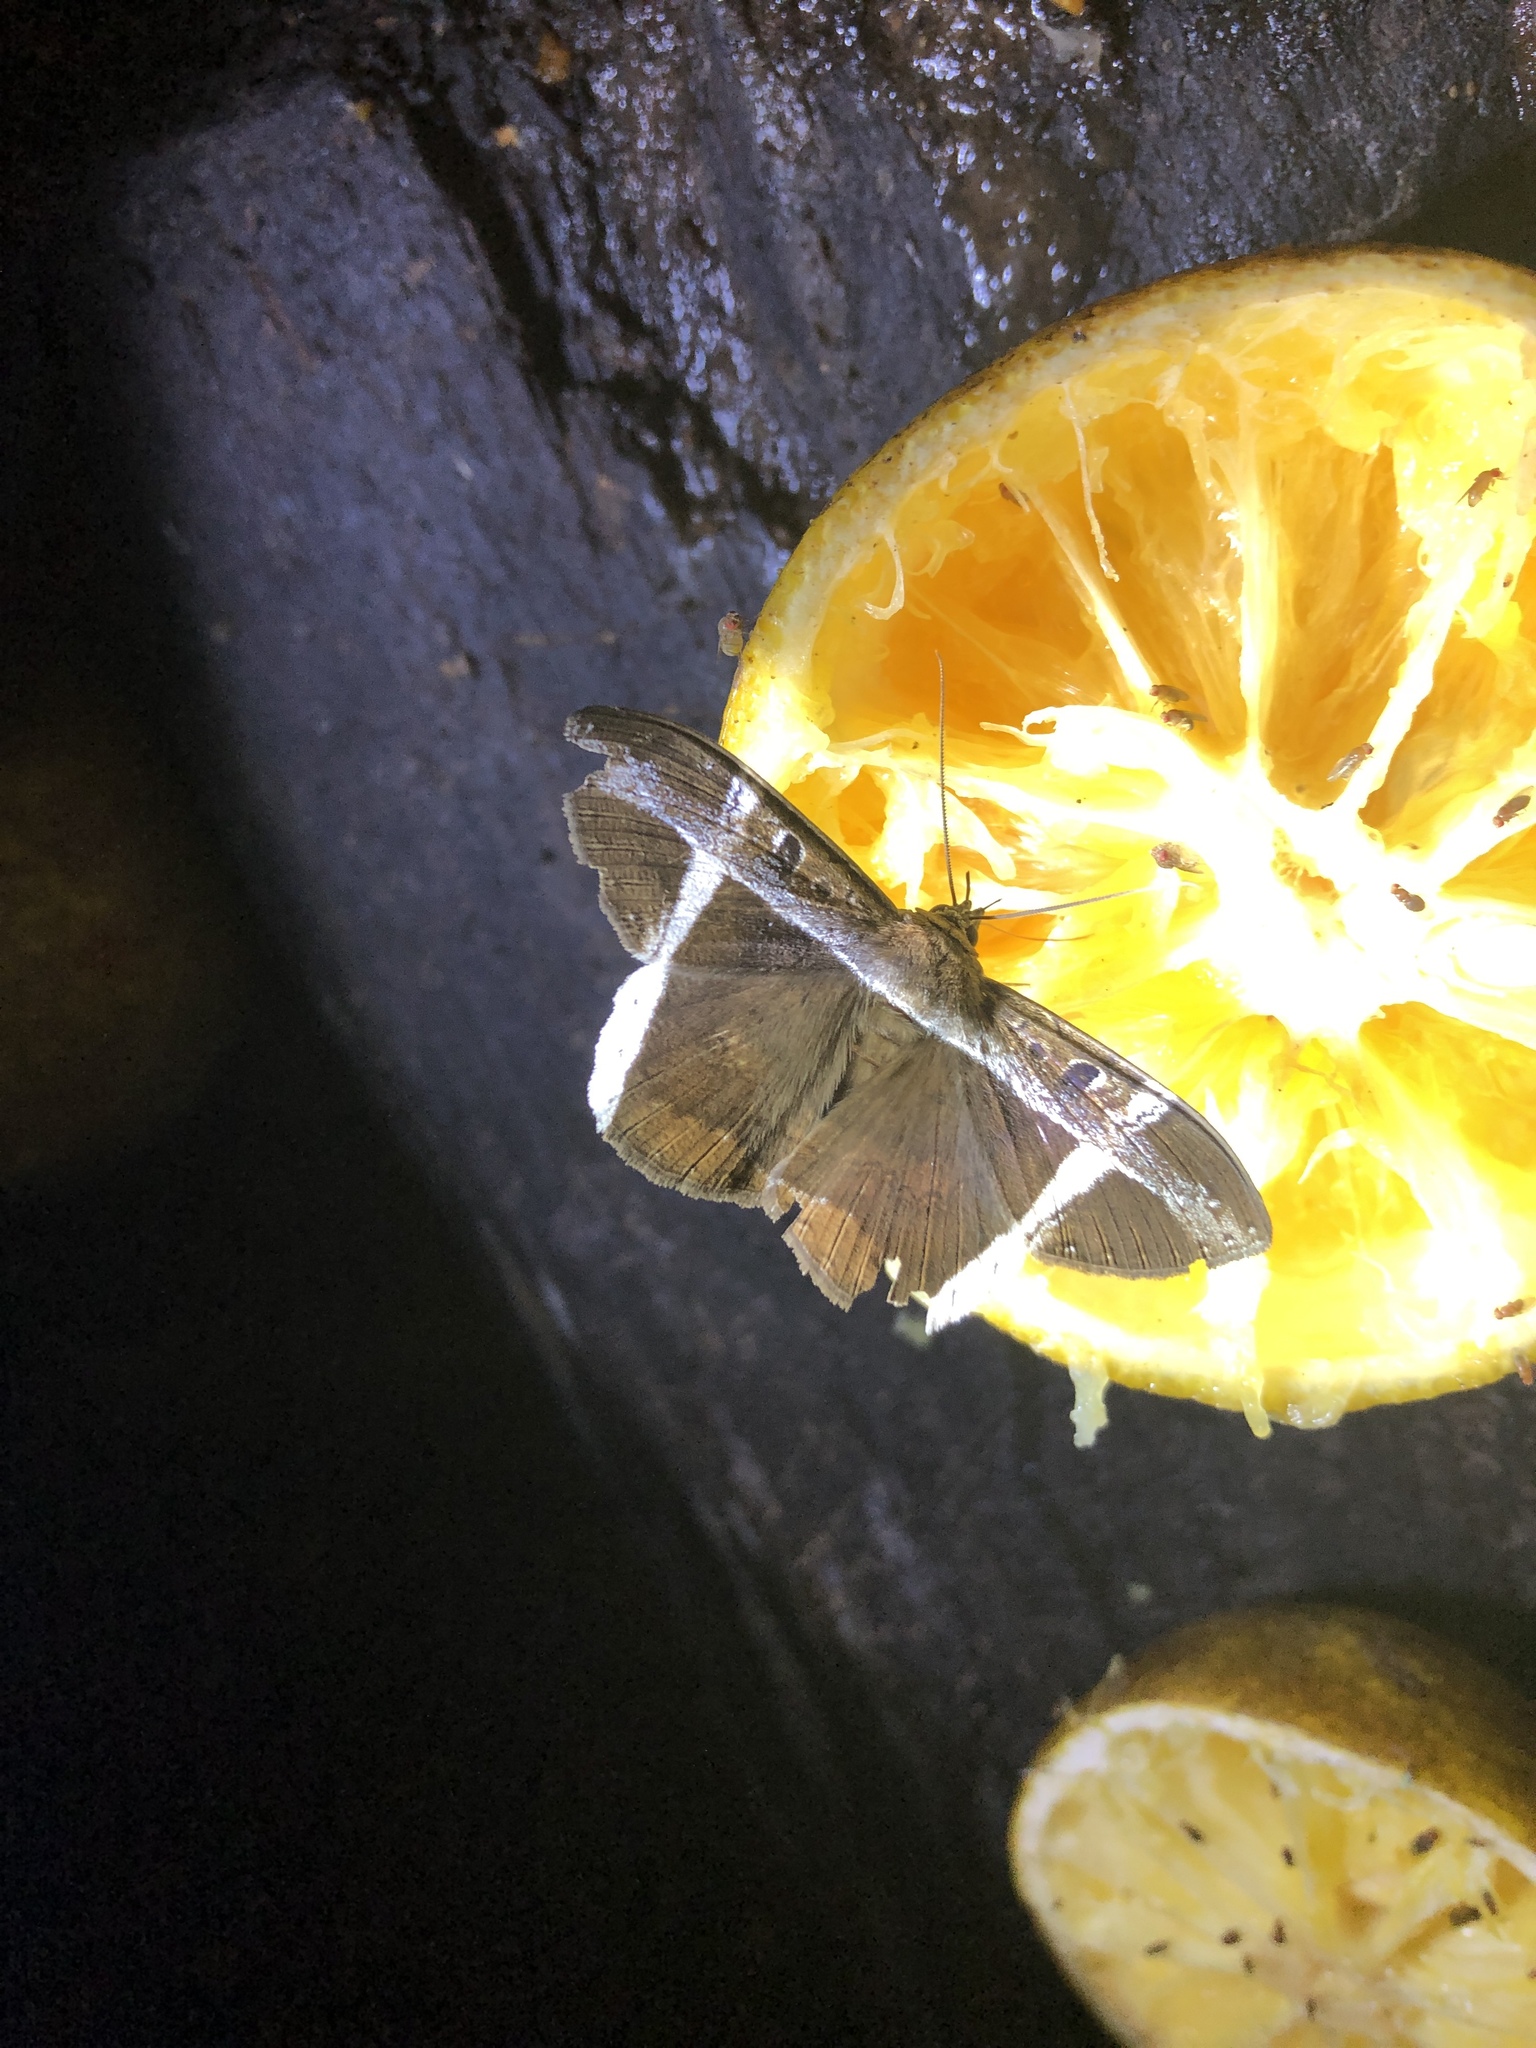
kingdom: Animalia
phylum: Arthropoda
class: Insecta
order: Lepidoptera
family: Erebidae
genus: Hemeroblemma
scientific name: Hemeroblemma mexicana
